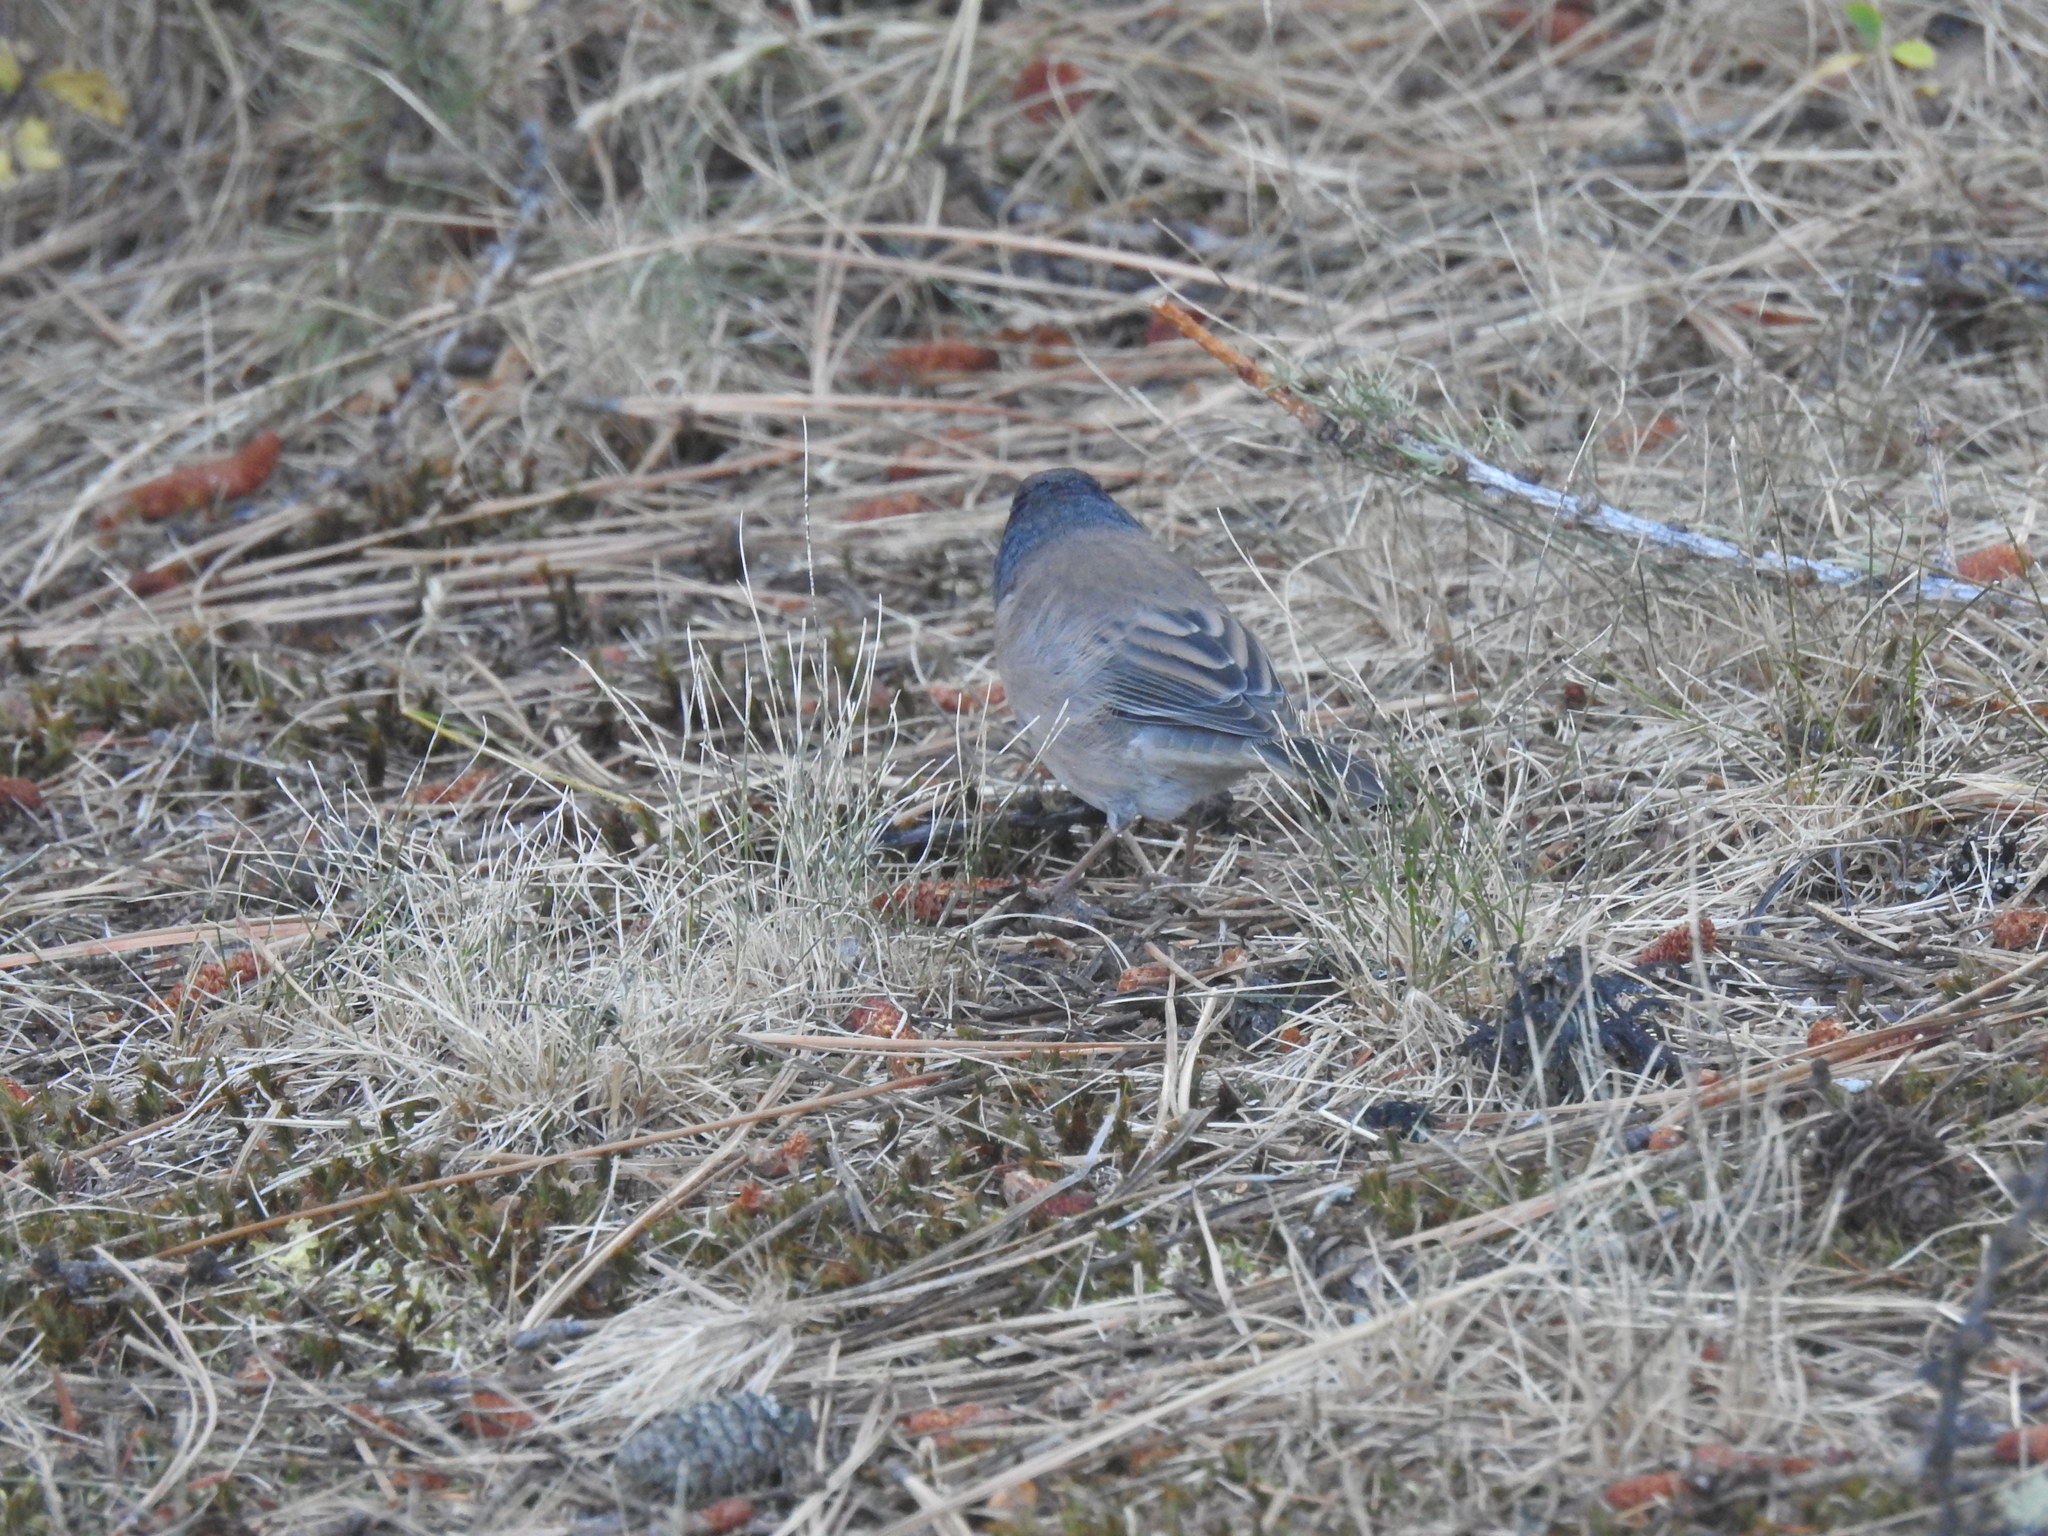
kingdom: Animalia
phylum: Chordata
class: Aves
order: Passeriformes
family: Passerellidae
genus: Junco
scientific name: Junco hyemalis
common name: Dark-eyed junco
